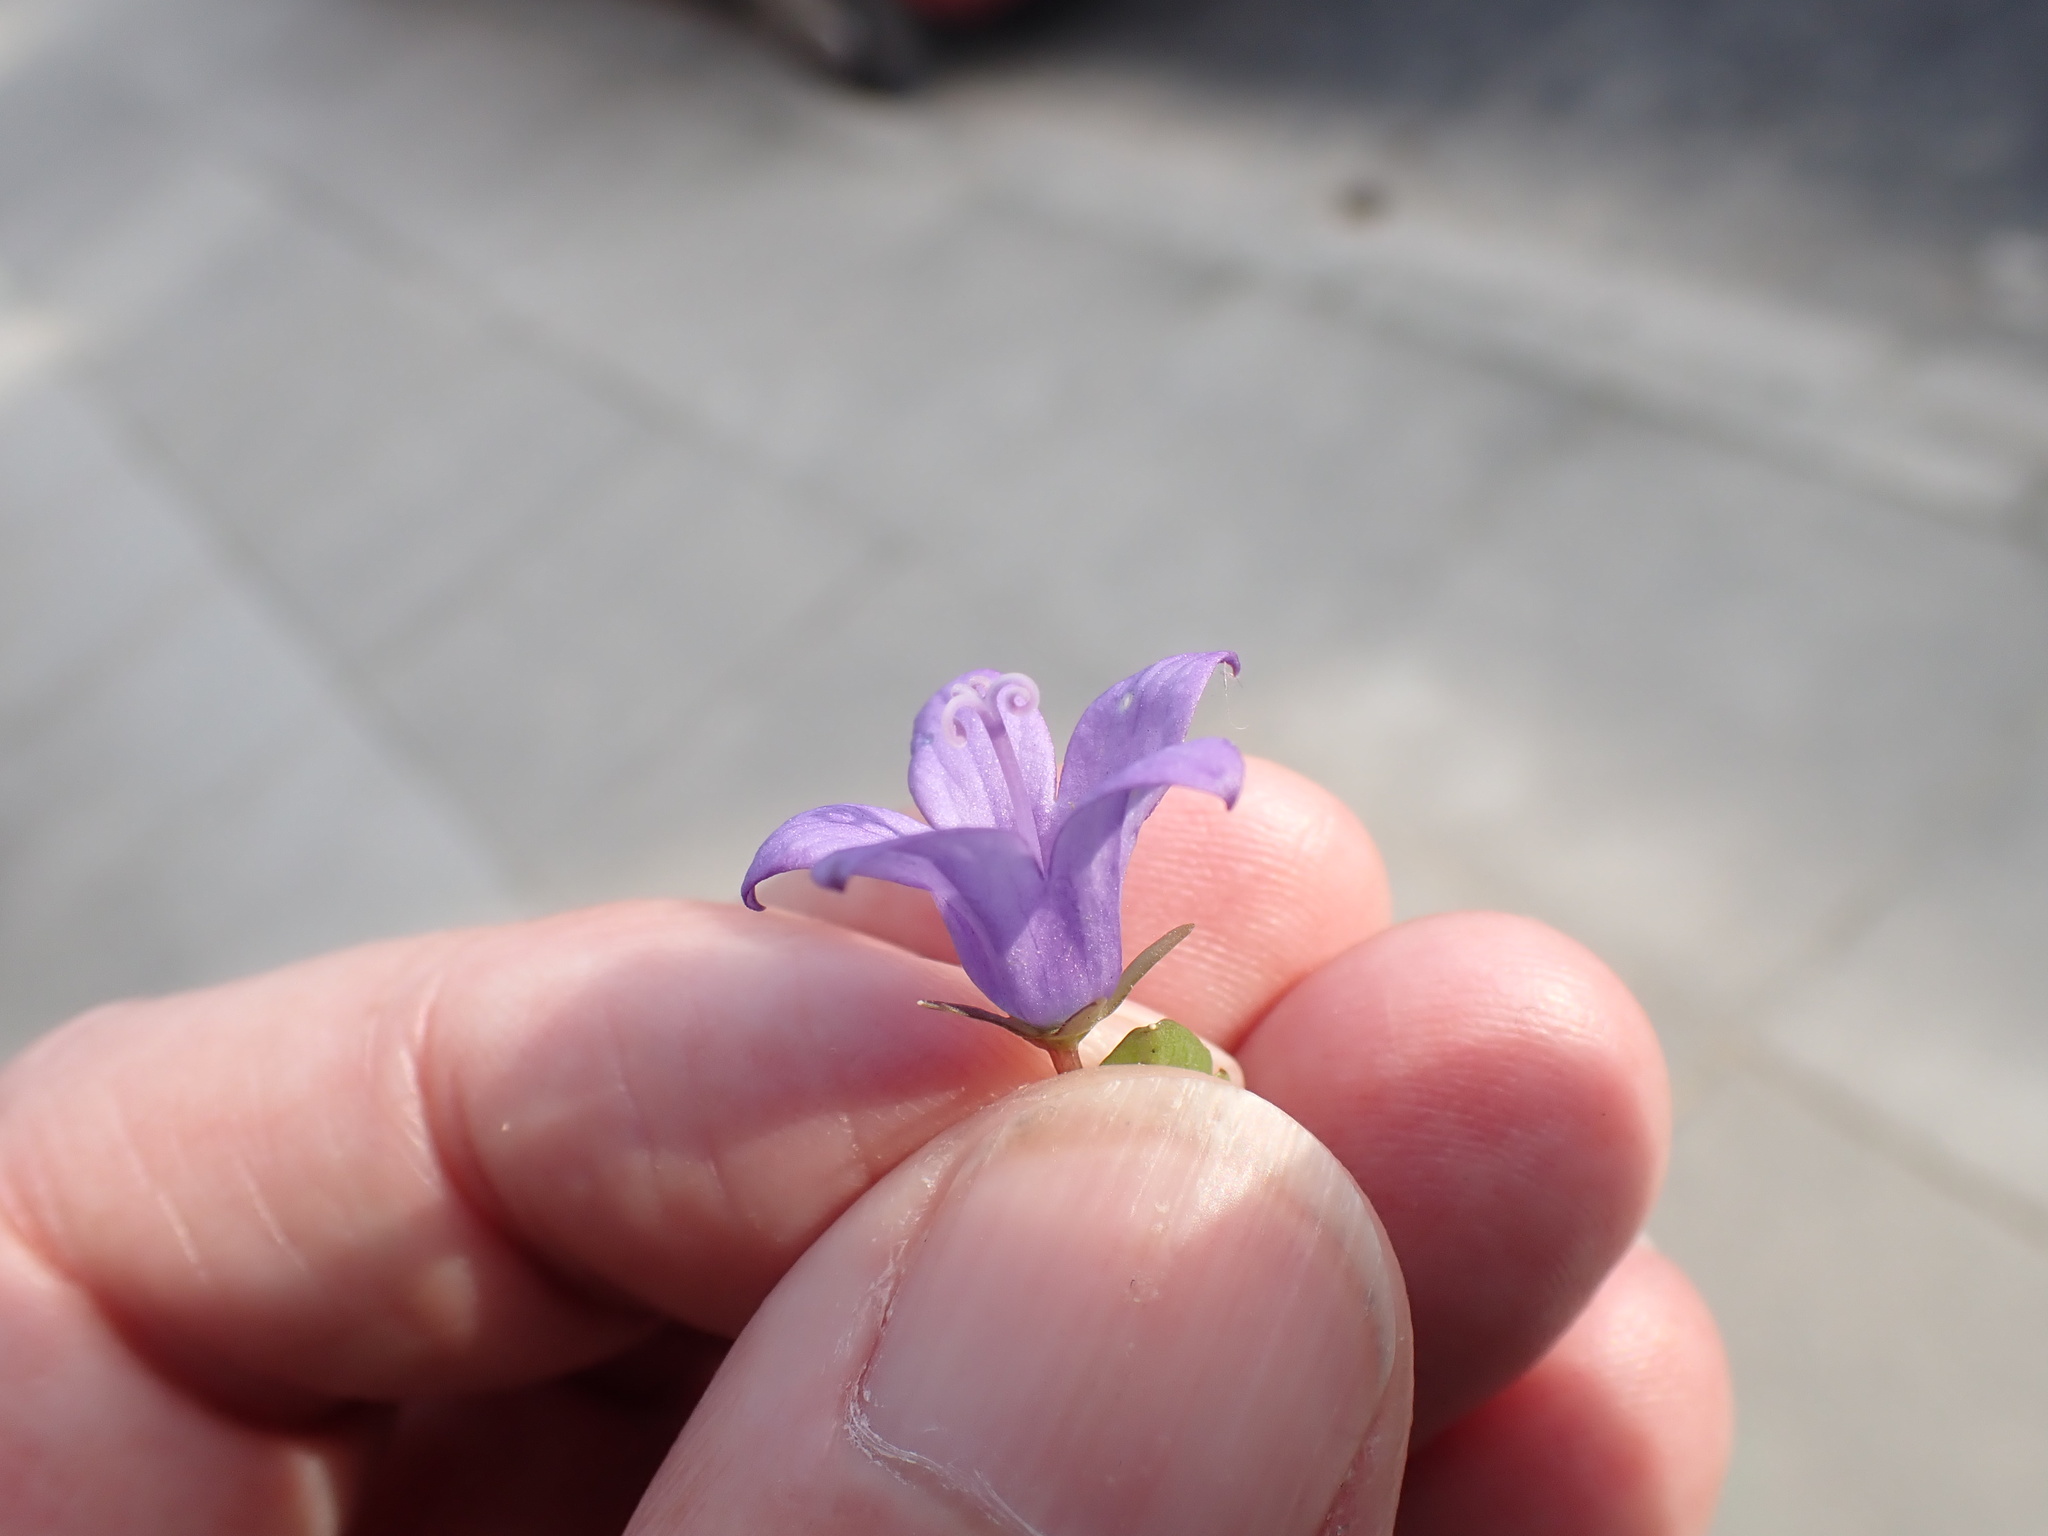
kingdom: Plantae
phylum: Tracheophyta
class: Magnoliopsida
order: Asterales
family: Campanulaceae
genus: Campanula
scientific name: Campanula portenschlagiana
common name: Adria bellflower
